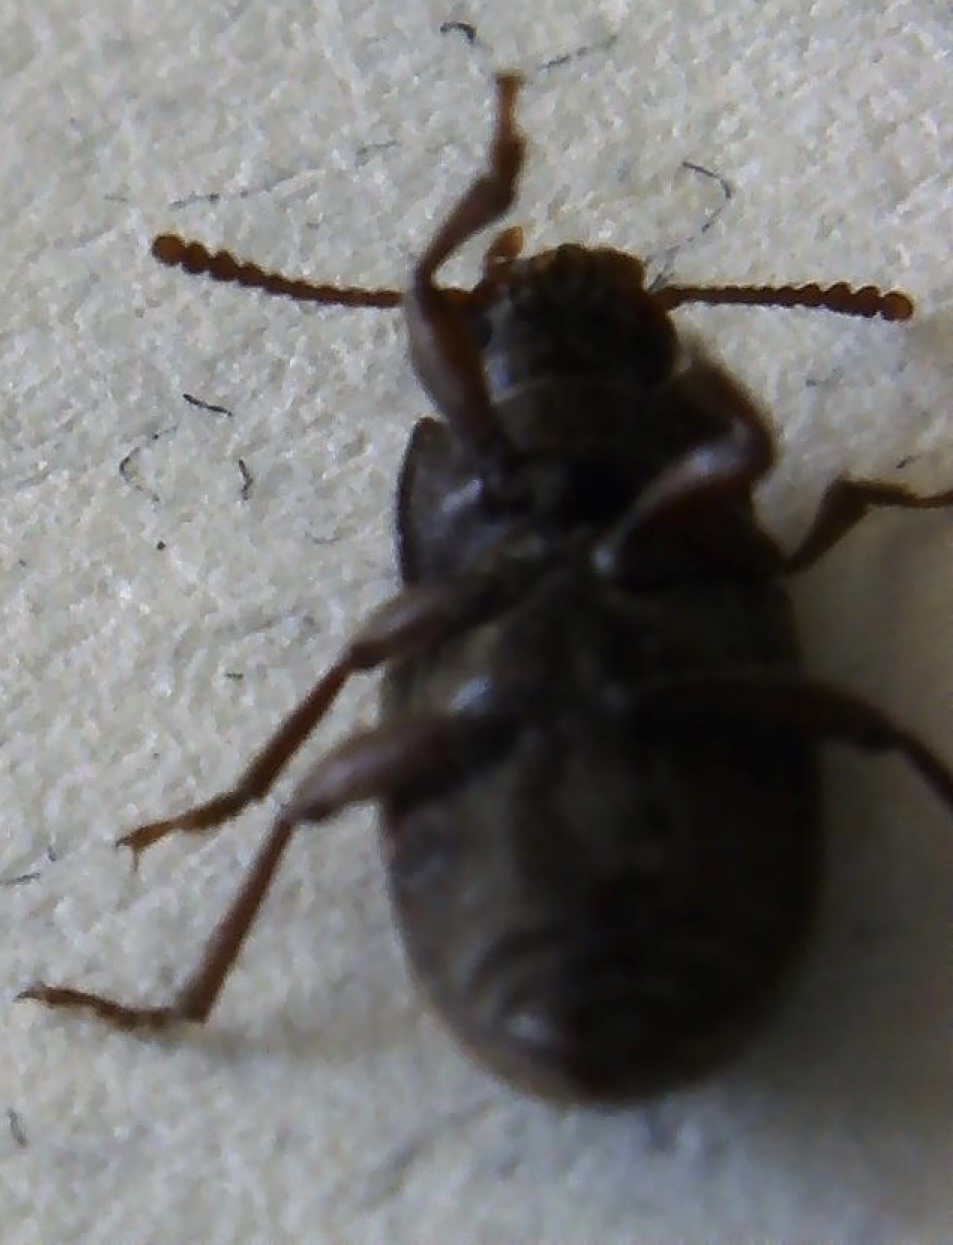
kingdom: Animalia
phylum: Arthropoda
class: Insecta
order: Coleoptera
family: Tenebrionidae
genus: Blapstinus
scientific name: Blapstinus histricus
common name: Beetle
